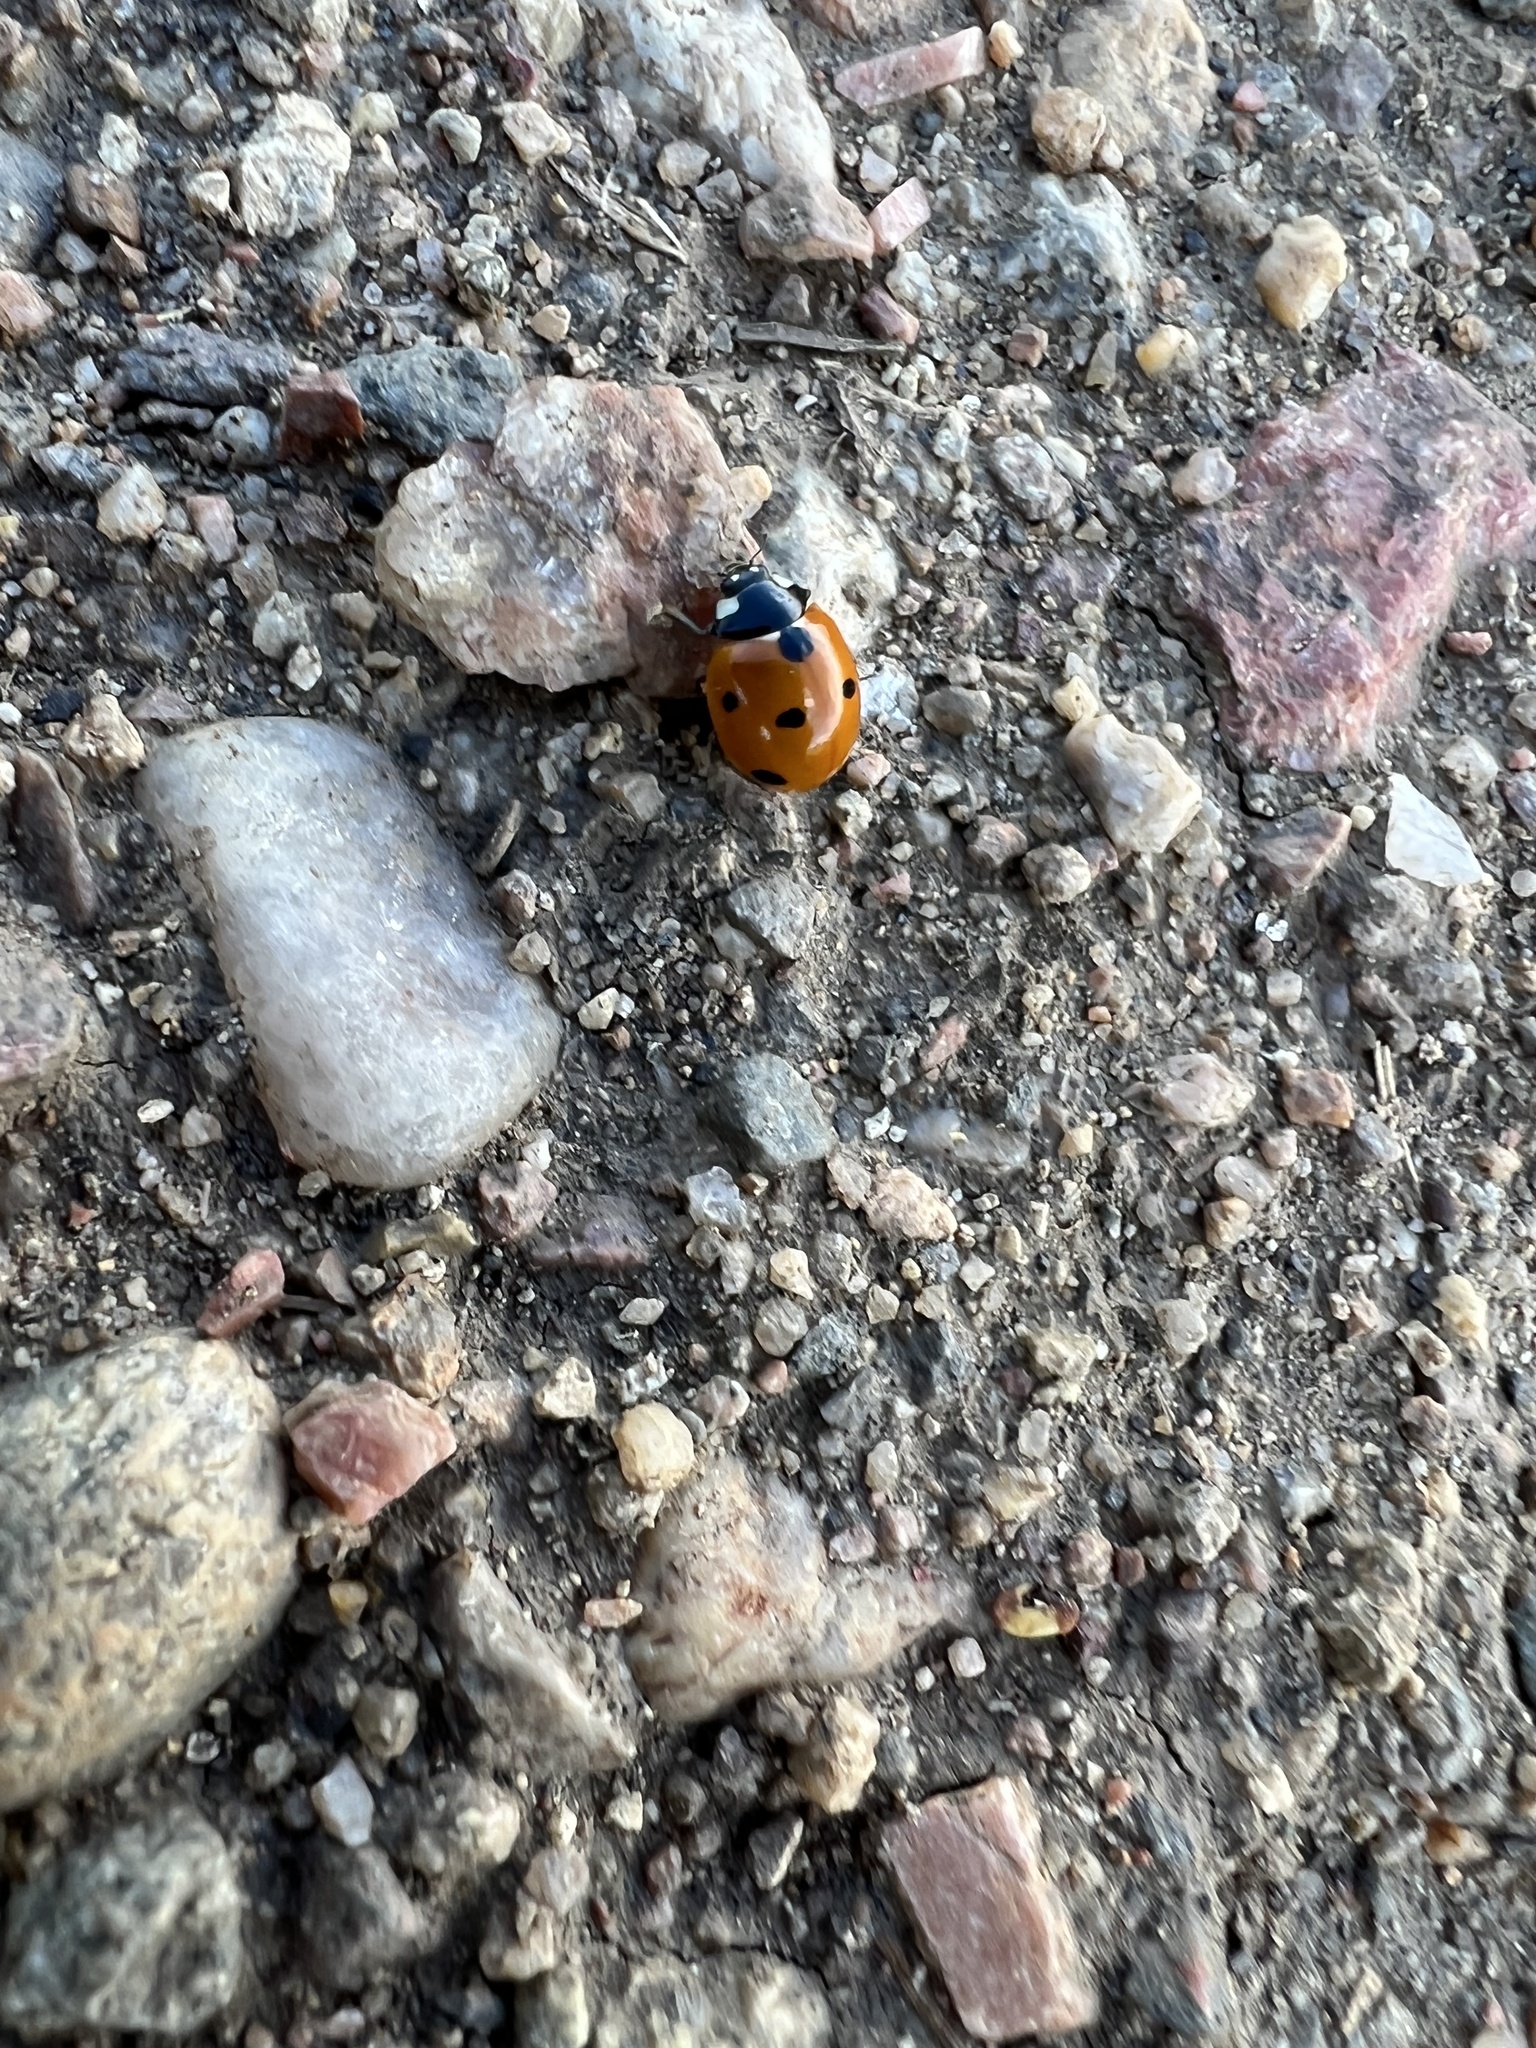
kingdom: Animalia
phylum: Arthropoda
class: Insecta
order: Coleoptera
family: Coccinellidae
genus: Coccinella
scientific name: Coccinella septempunctata
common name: Sevenspotted lady beetle
